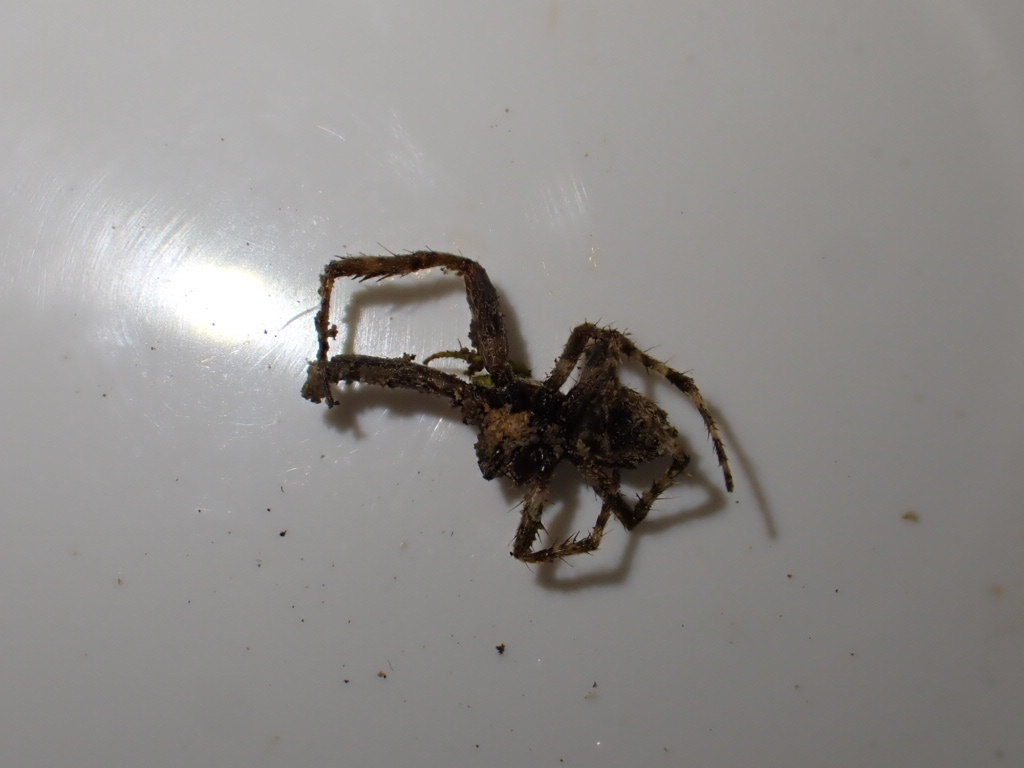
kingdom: Animalia
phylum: Arthropoda
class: Arachnida
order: Araneae
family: Araneidae
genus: Eriophora
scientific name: Eriophora pustulosa
